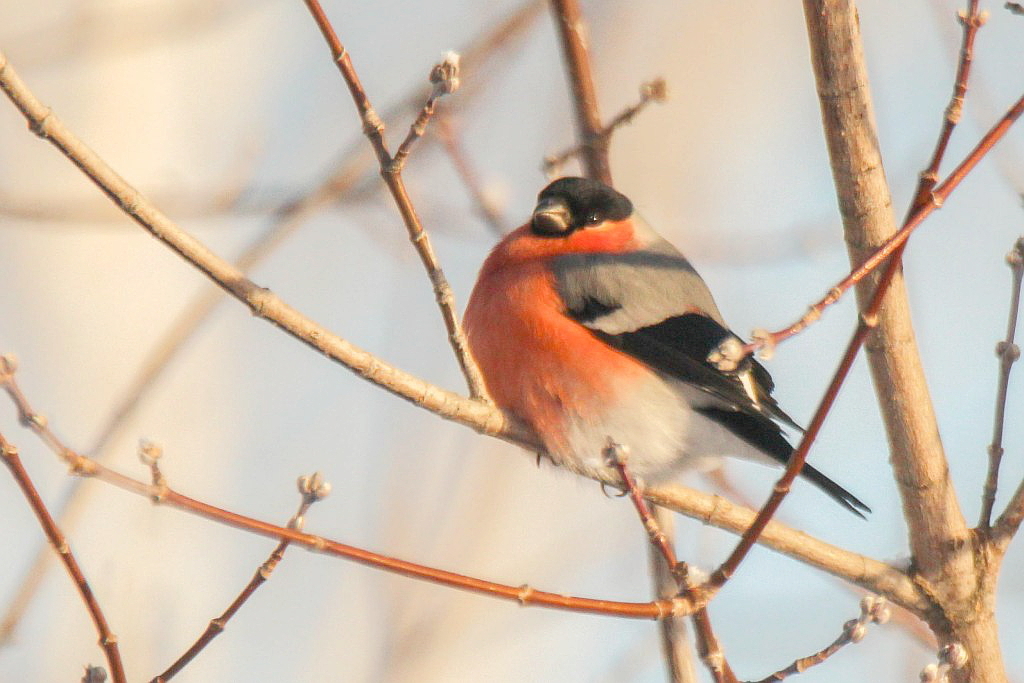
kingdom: Animalia
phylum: Chordata
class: Aves
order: Passeriformes
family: Fringillidae
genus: Pyrrhula
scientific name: Pyrrhula pyrrhula
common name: Eurasian bullfinch
